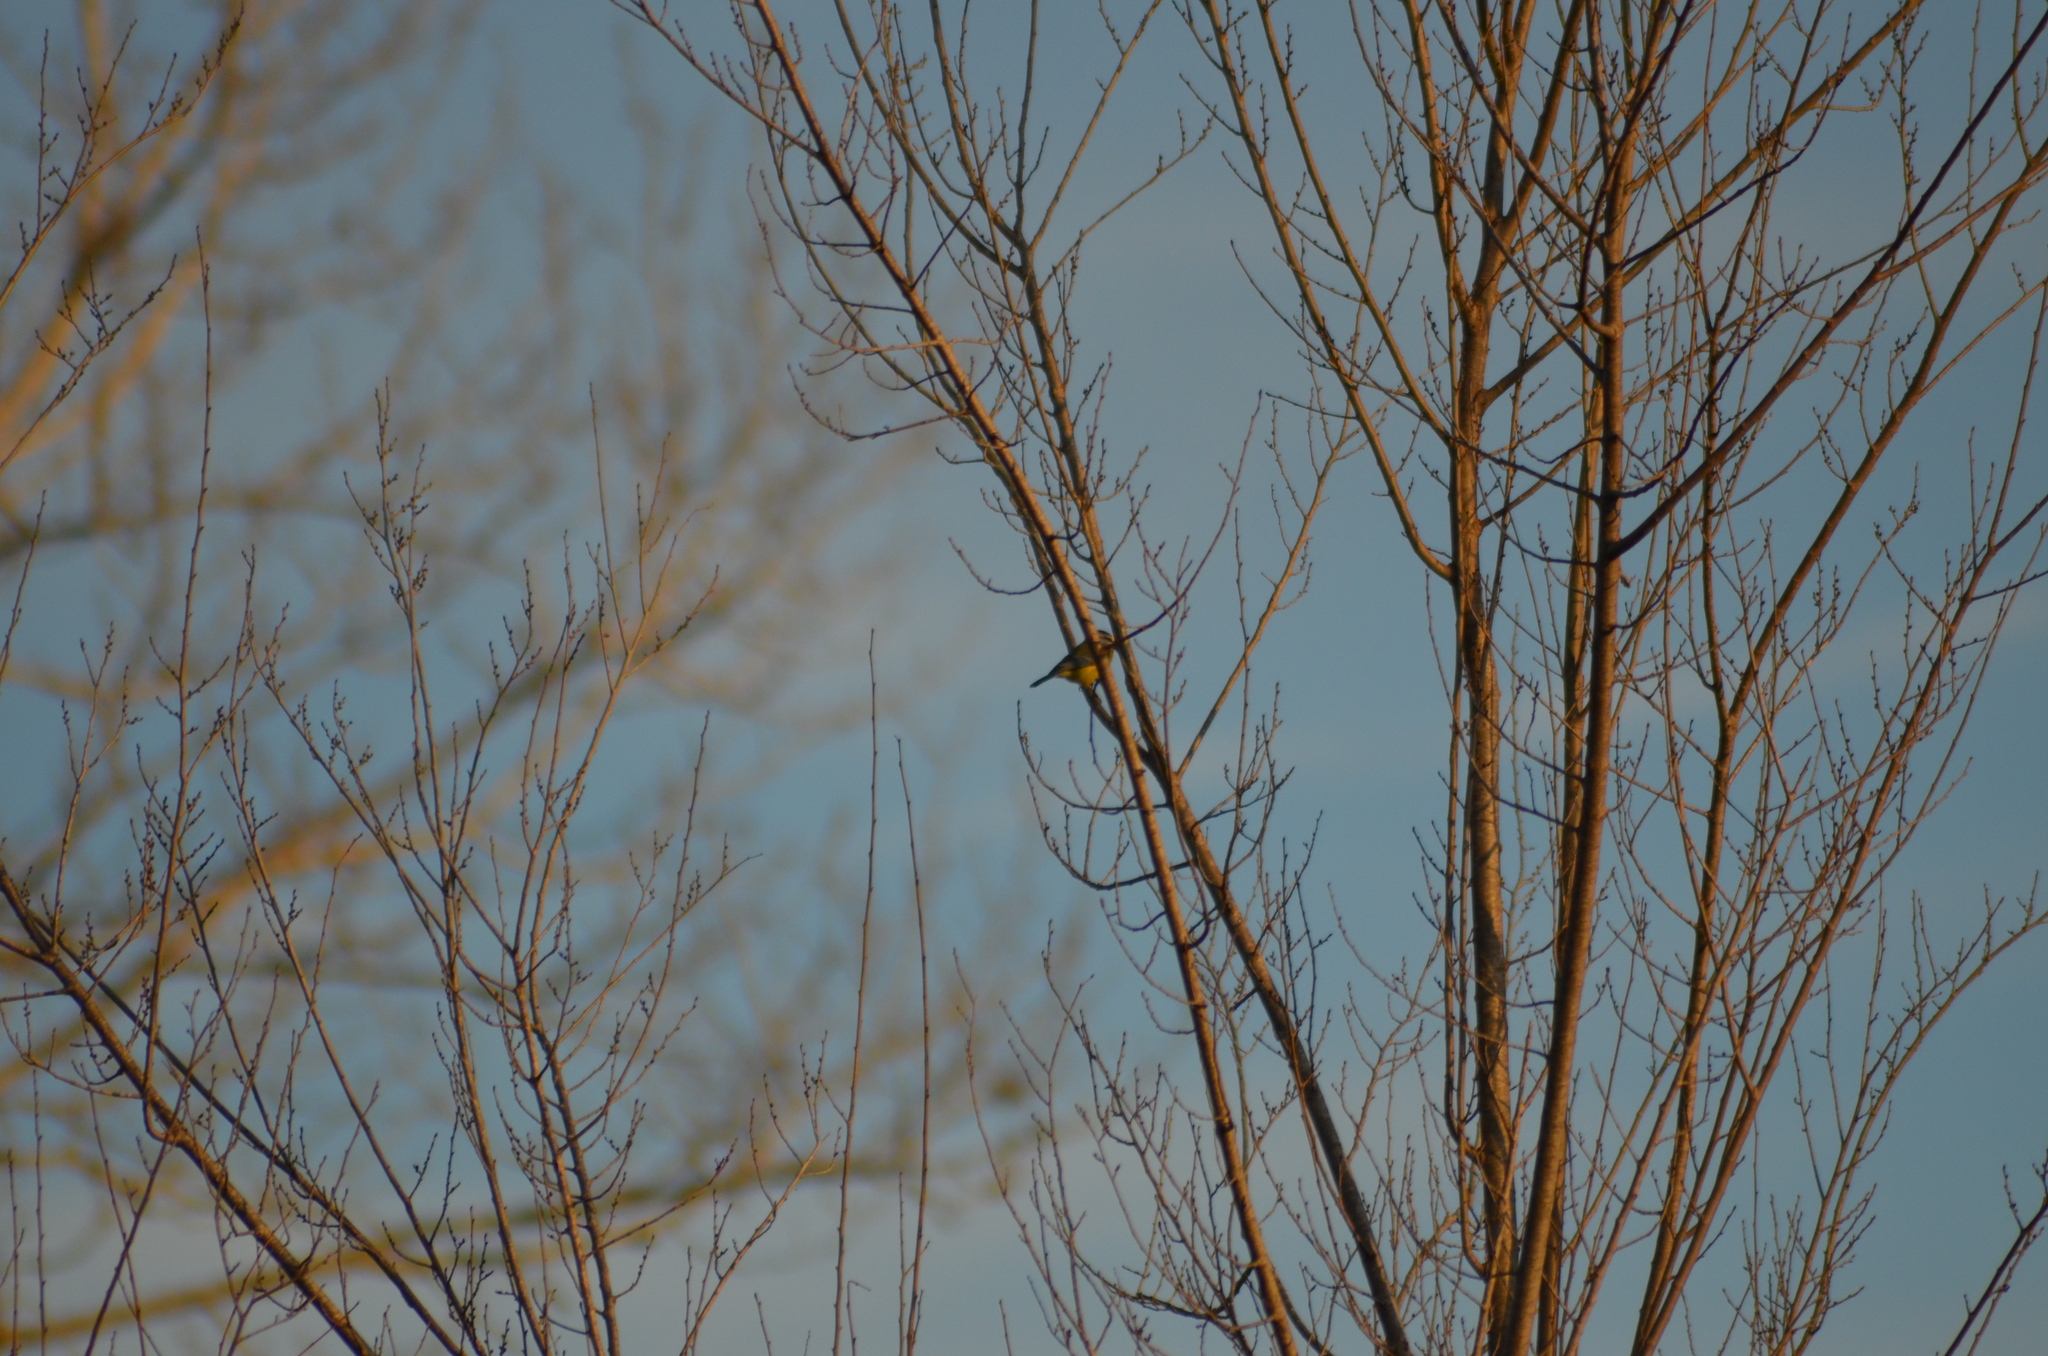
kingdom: Animalia
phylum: Chordata
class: Aves
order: Passeriformes
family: Paridae
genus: Cyanistes
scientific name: Cyanistes caeruleus
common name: Eurasian blue tit
